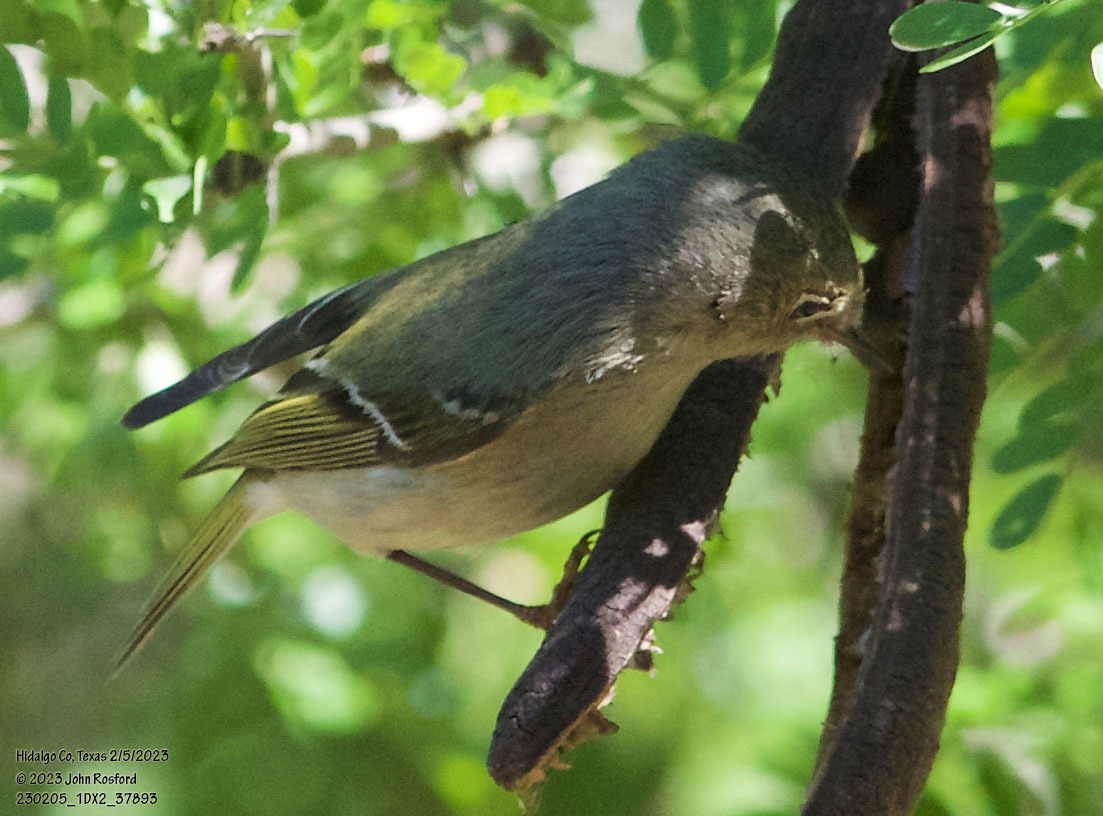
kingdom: Animalia
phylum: Chordata
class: Aves
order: Passeriformes
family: Regulidae
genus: Regulus
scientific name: Regulus calendula
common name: Ruby-crowned kinglet
